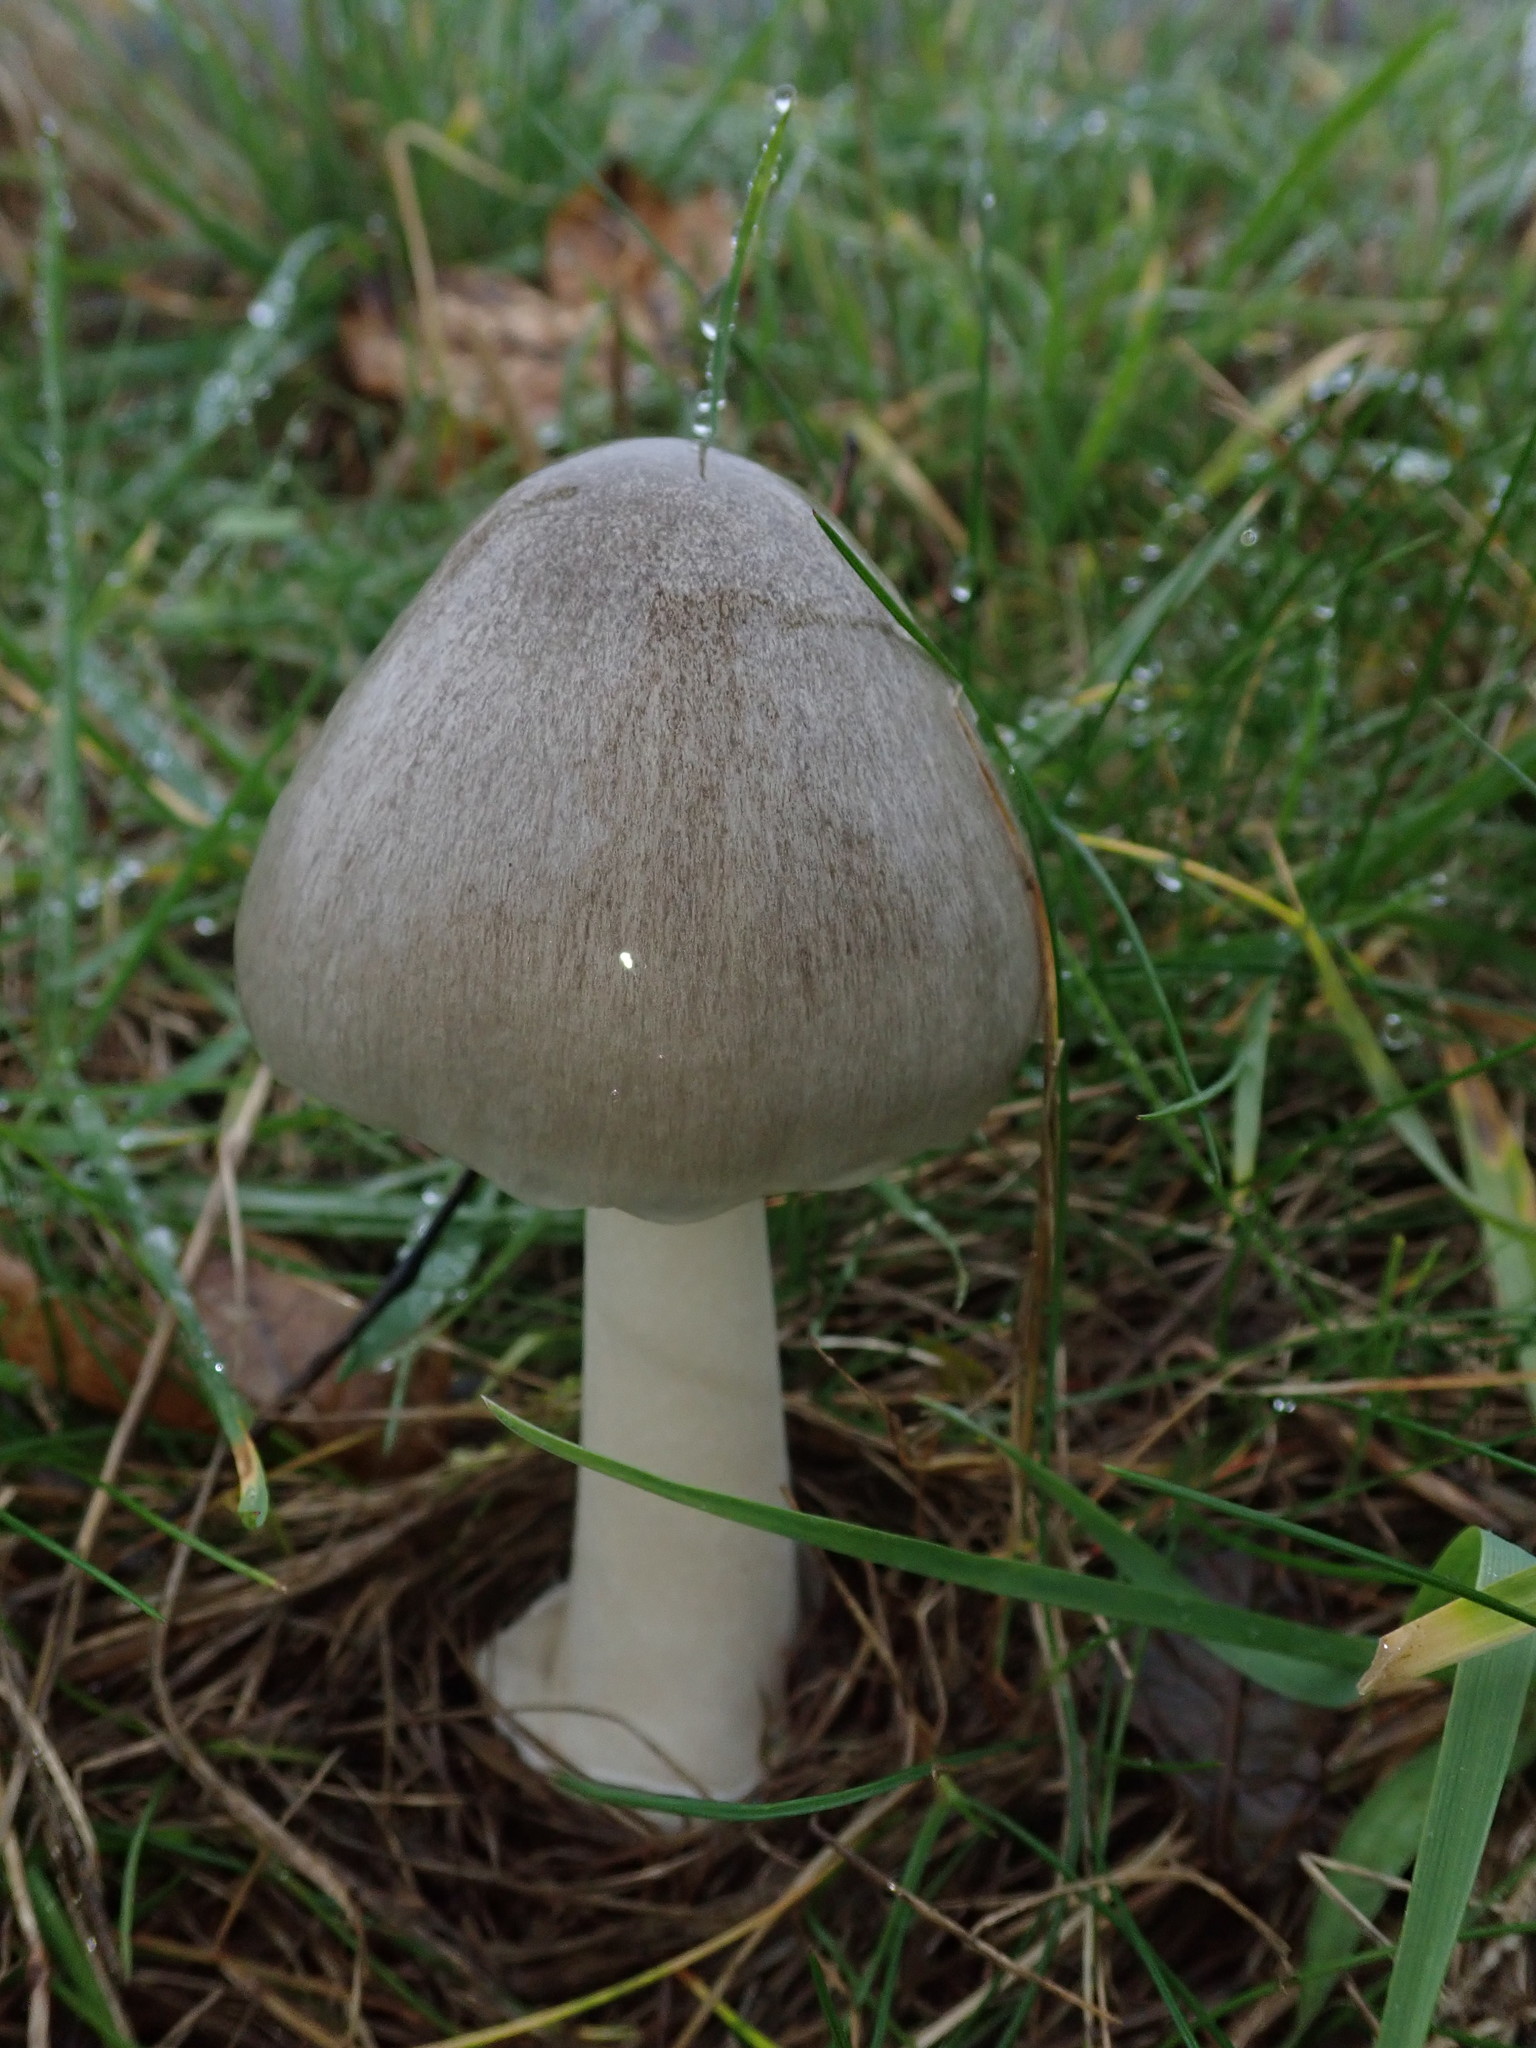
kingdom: Fungi
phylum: Basidiomycota
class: Agaricomycetes
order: Agaricales
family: Pluteaceae
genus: Volvopluteus
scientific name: Volvopluteus gloiocephalus
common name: Stubble rosegill
